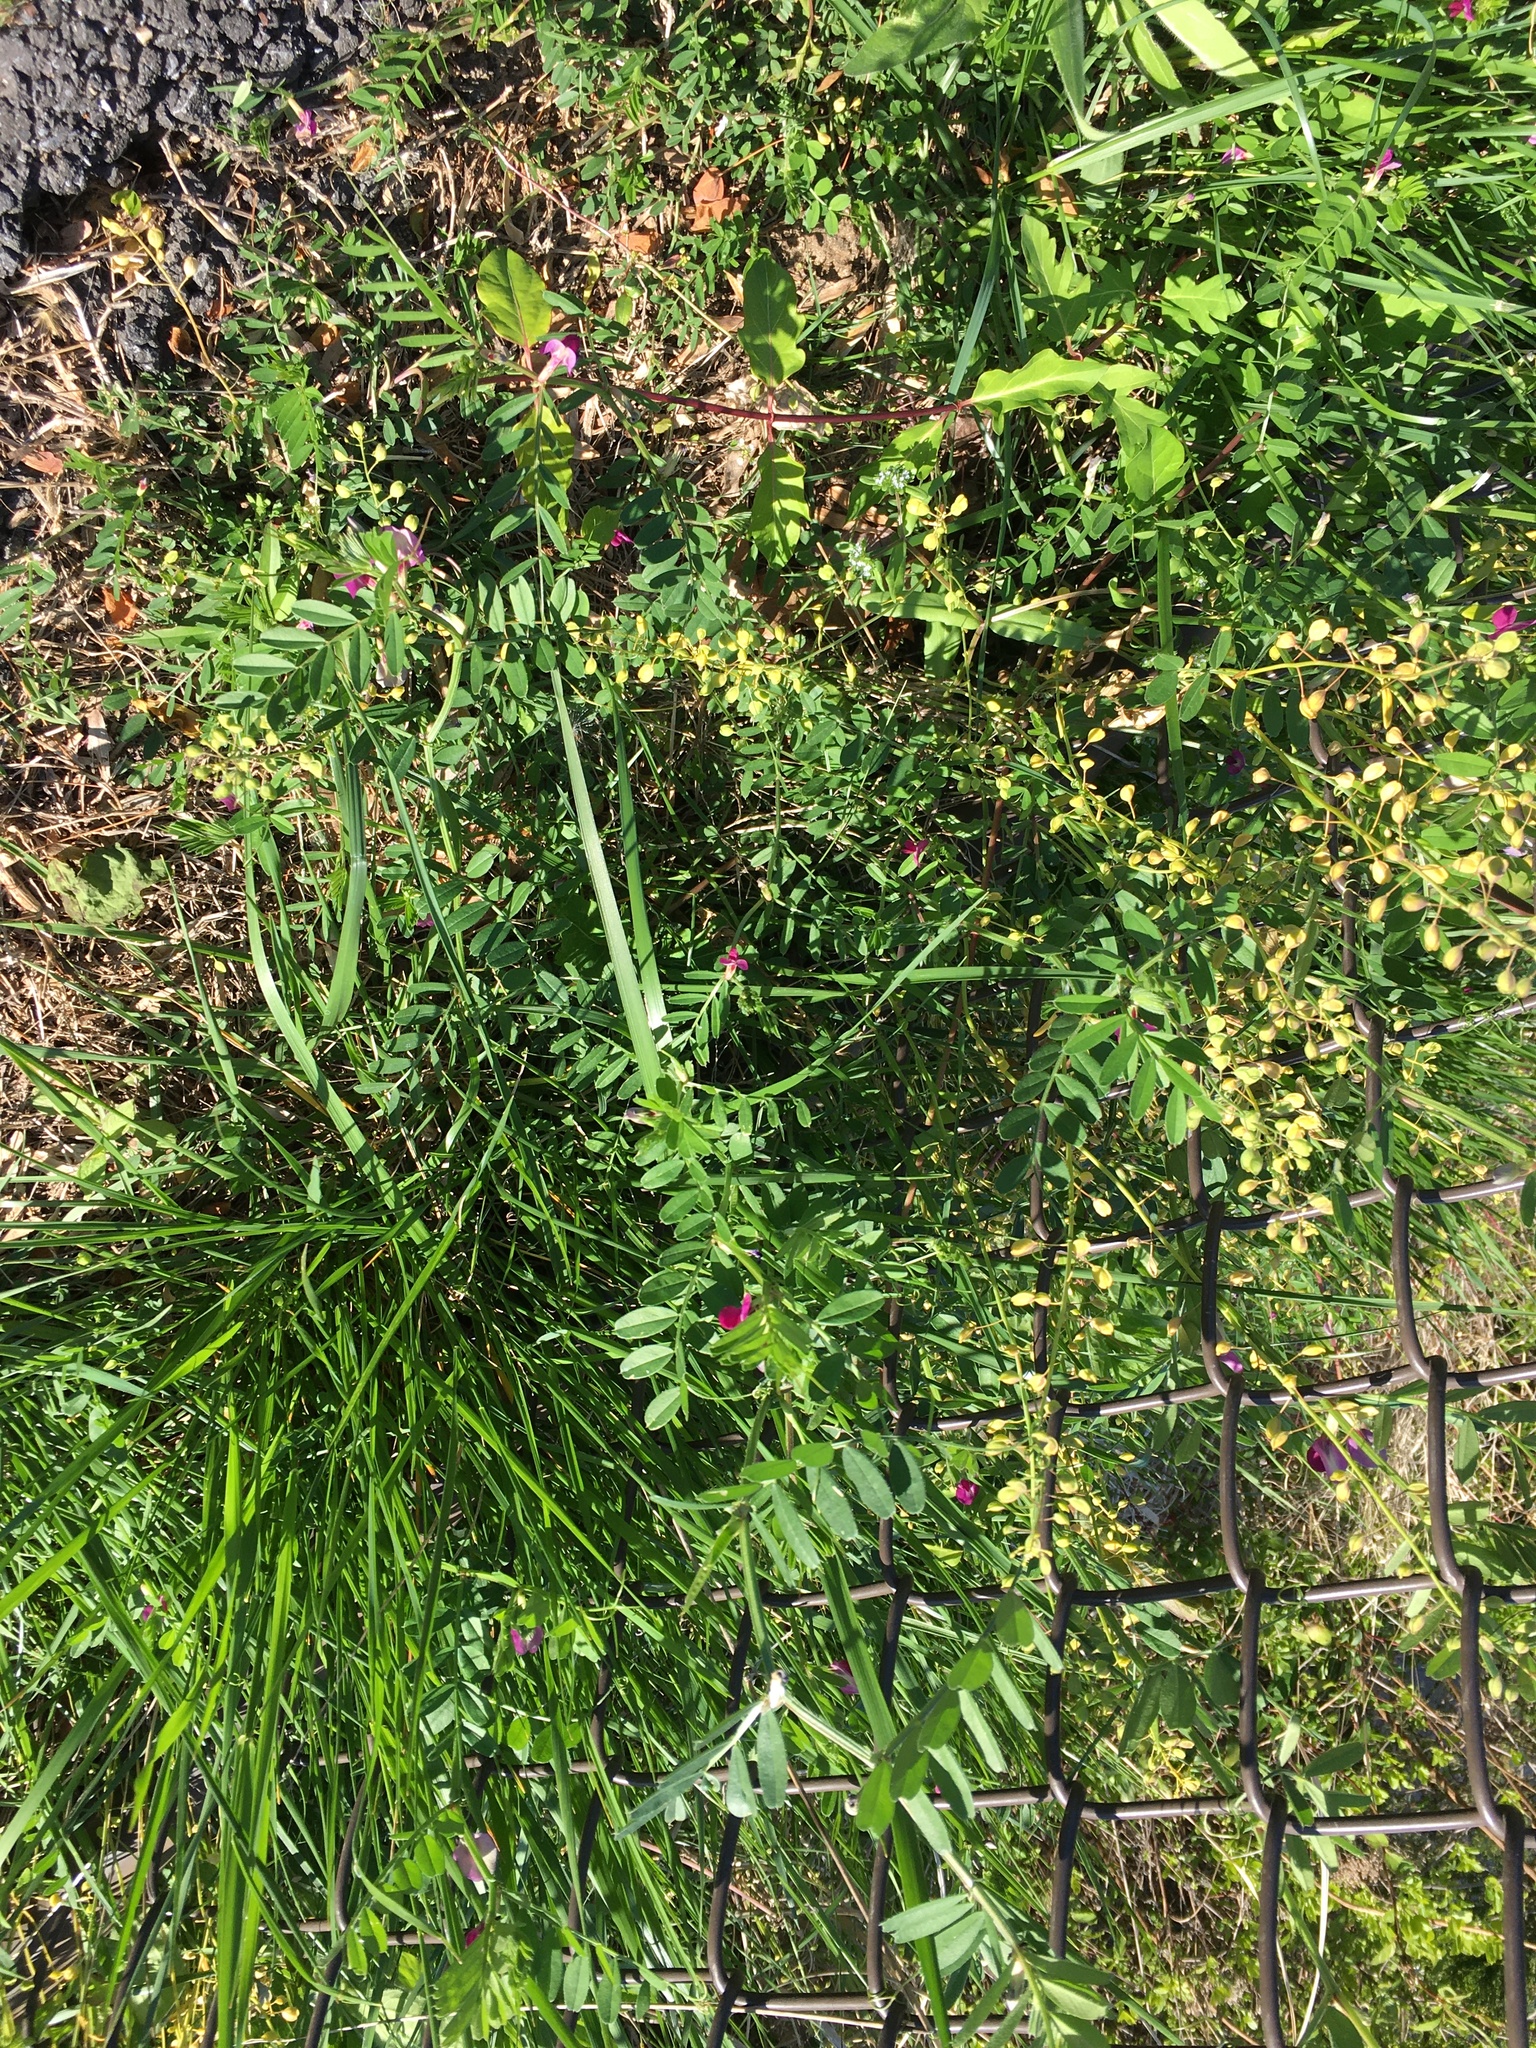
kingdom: Plantae
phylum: Tracheophyta
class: Magnoliopsida
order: Fabales
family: Fabaceae
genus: Vicia
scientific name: Vicia sativa
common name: Garden vetch
